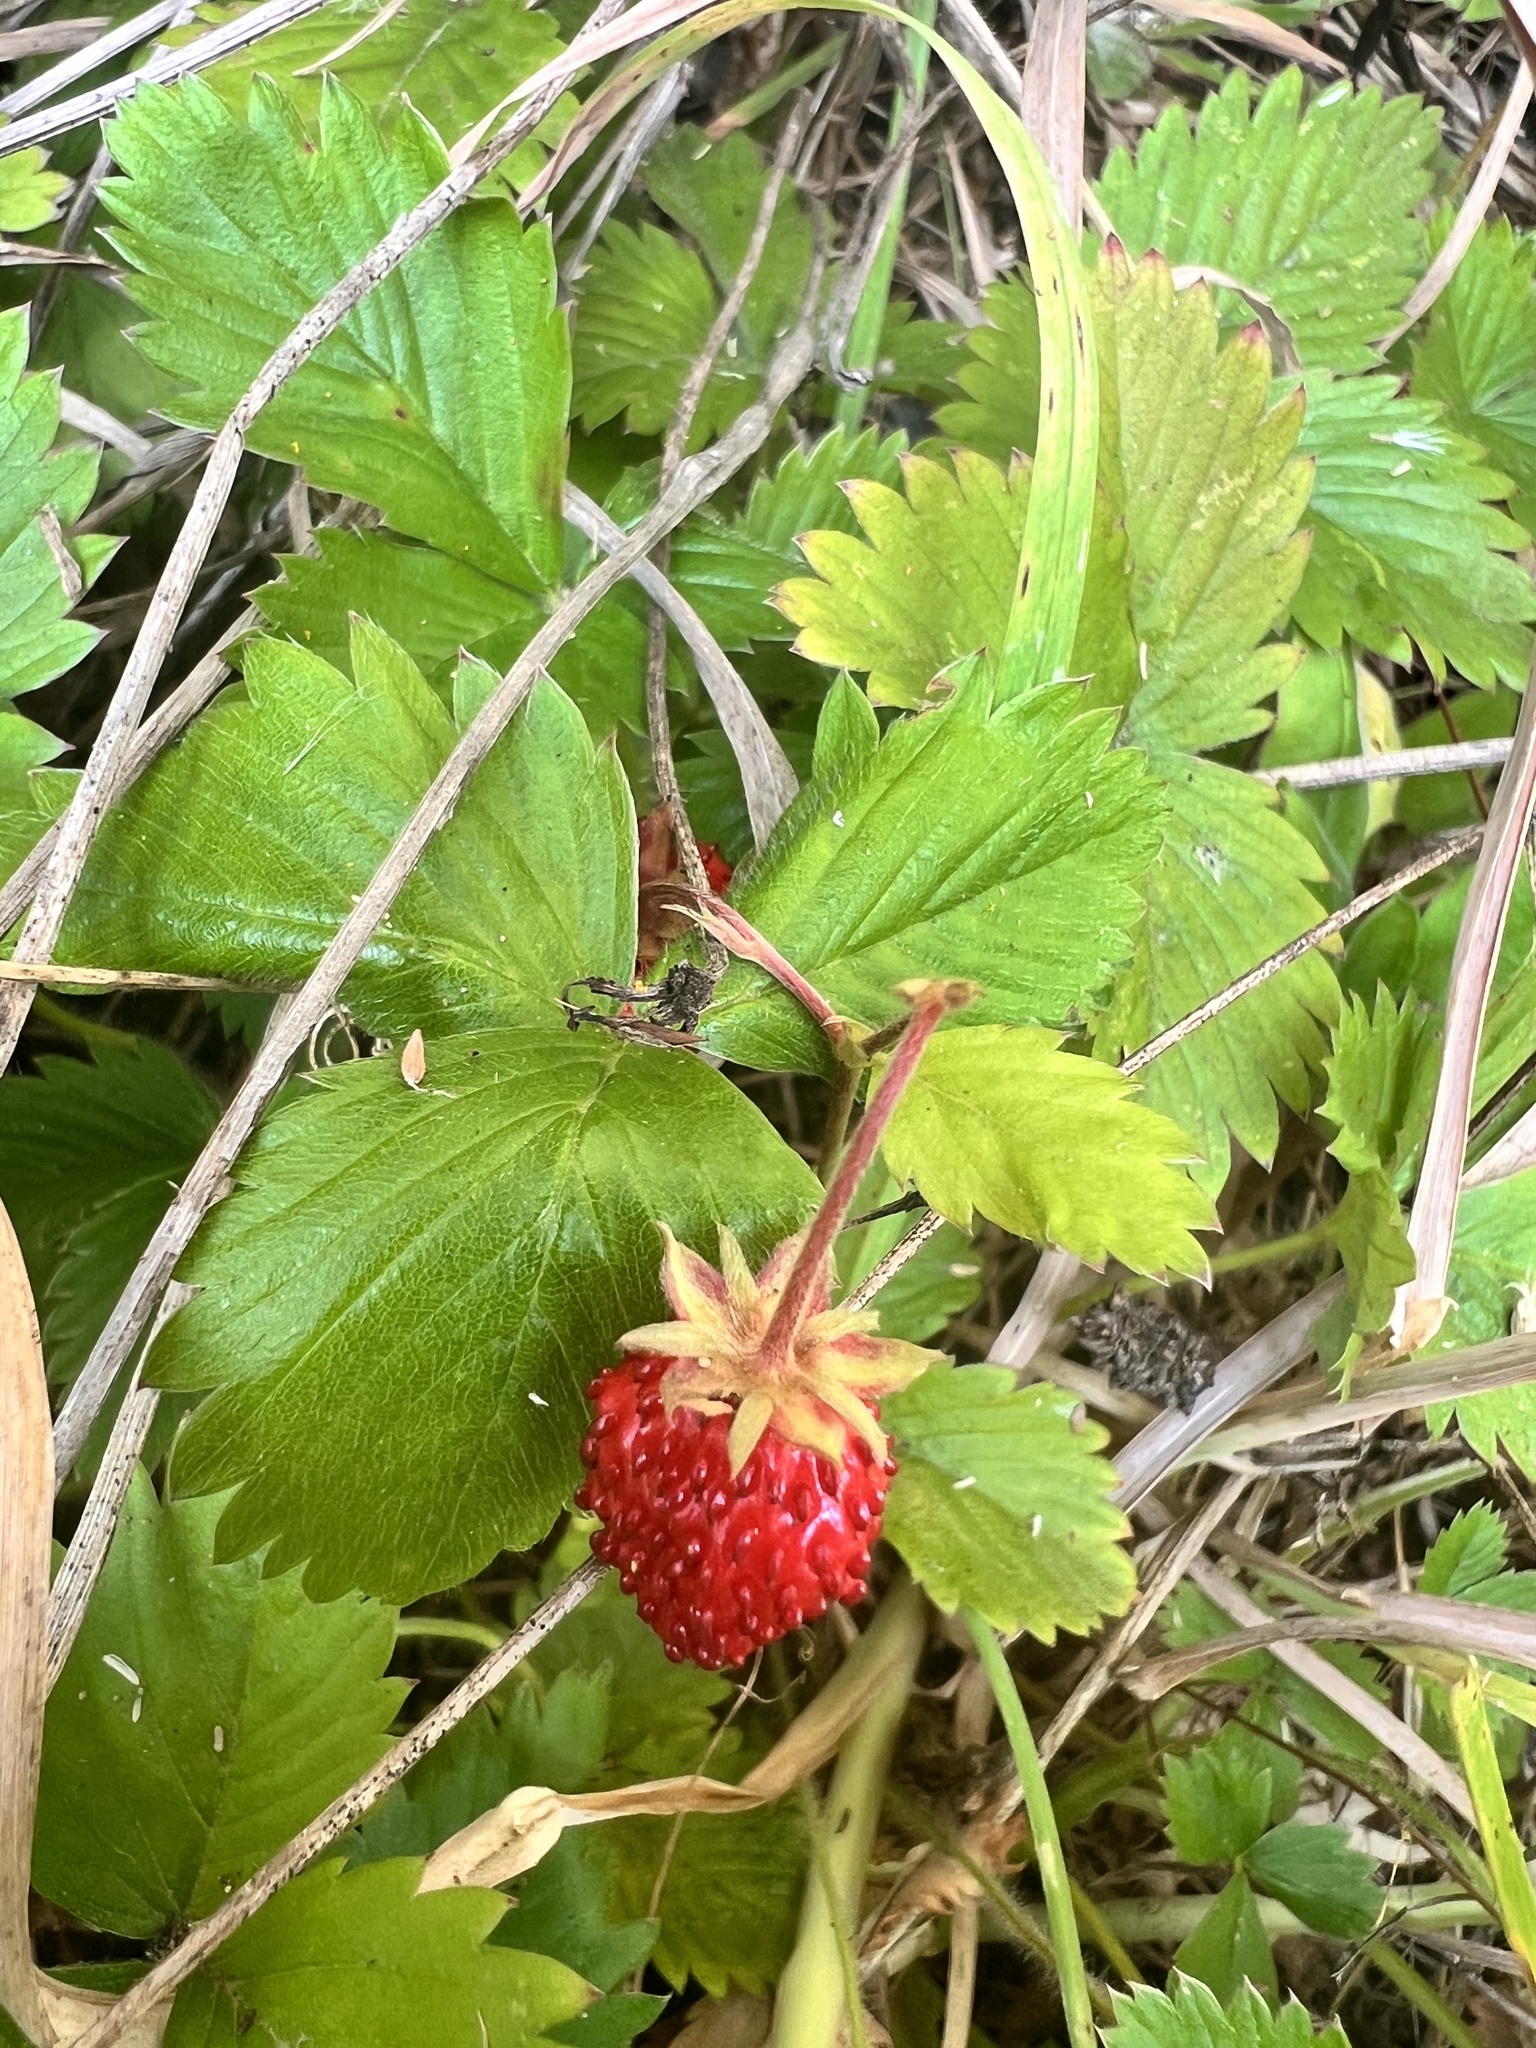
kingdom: Plantae
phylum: Tracheophyta
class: Magnoliopsida
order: Rosales
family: Rosaceae
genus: Fragaria
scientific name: Fragaria vesca
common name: Wild strawberry
